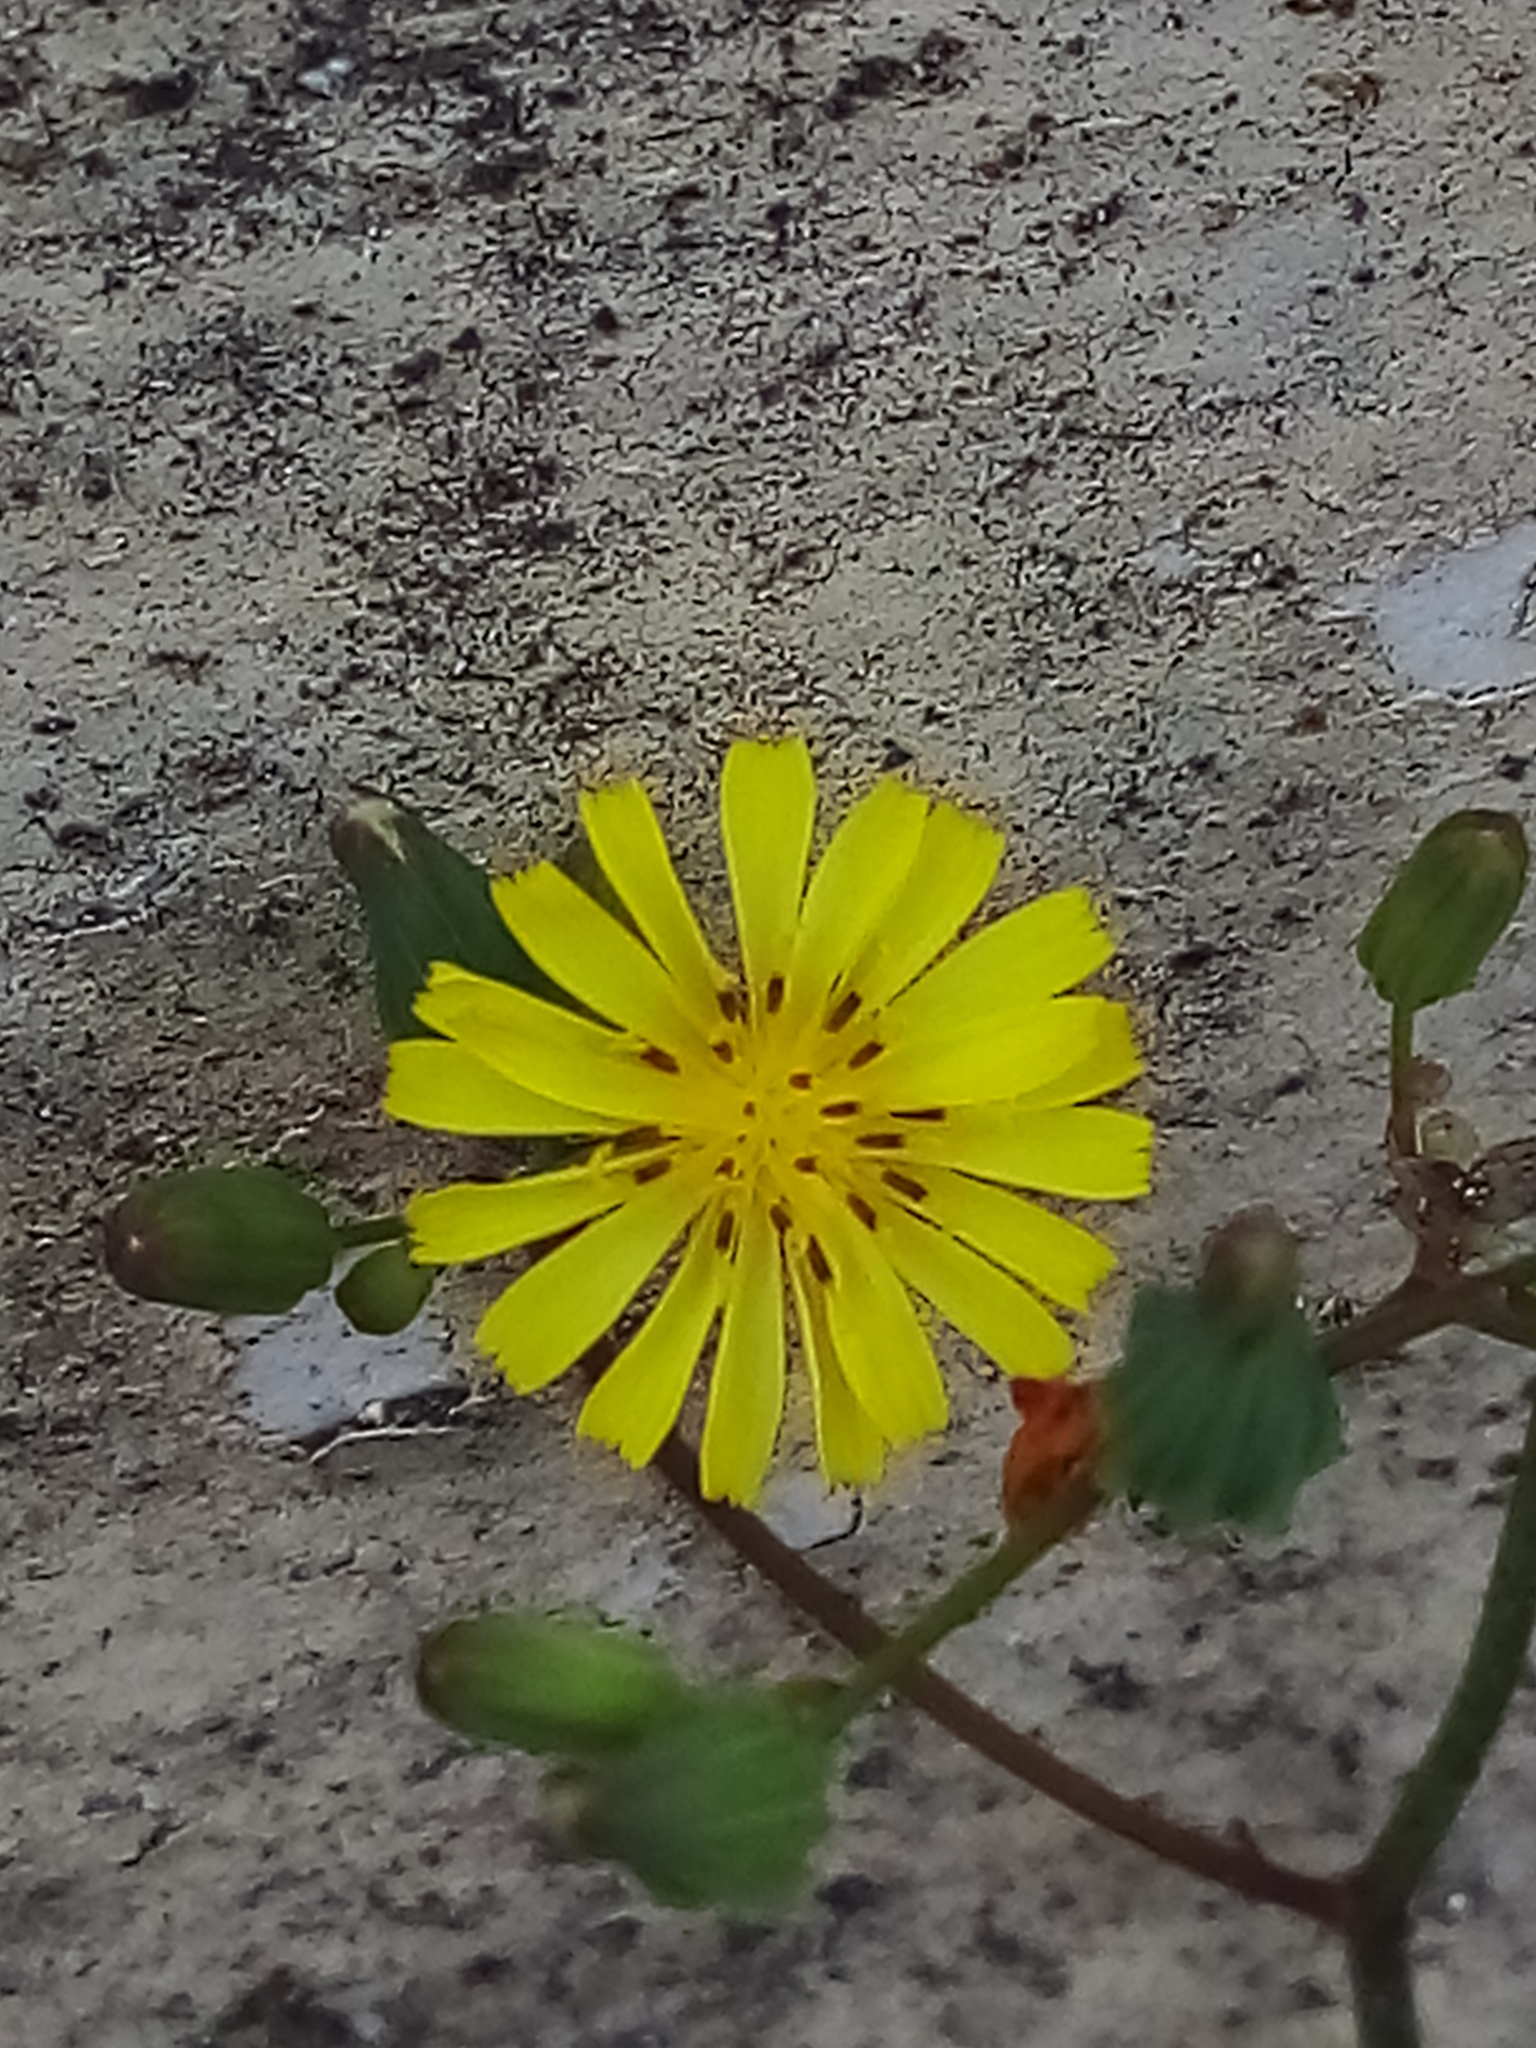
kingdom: Plantae
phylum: Tracheophyta
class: Magnoliopsida
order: Asterales
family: Asteraceae
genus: Youngia
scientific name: Youngia japonica
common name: Oriental false hawksbeard
